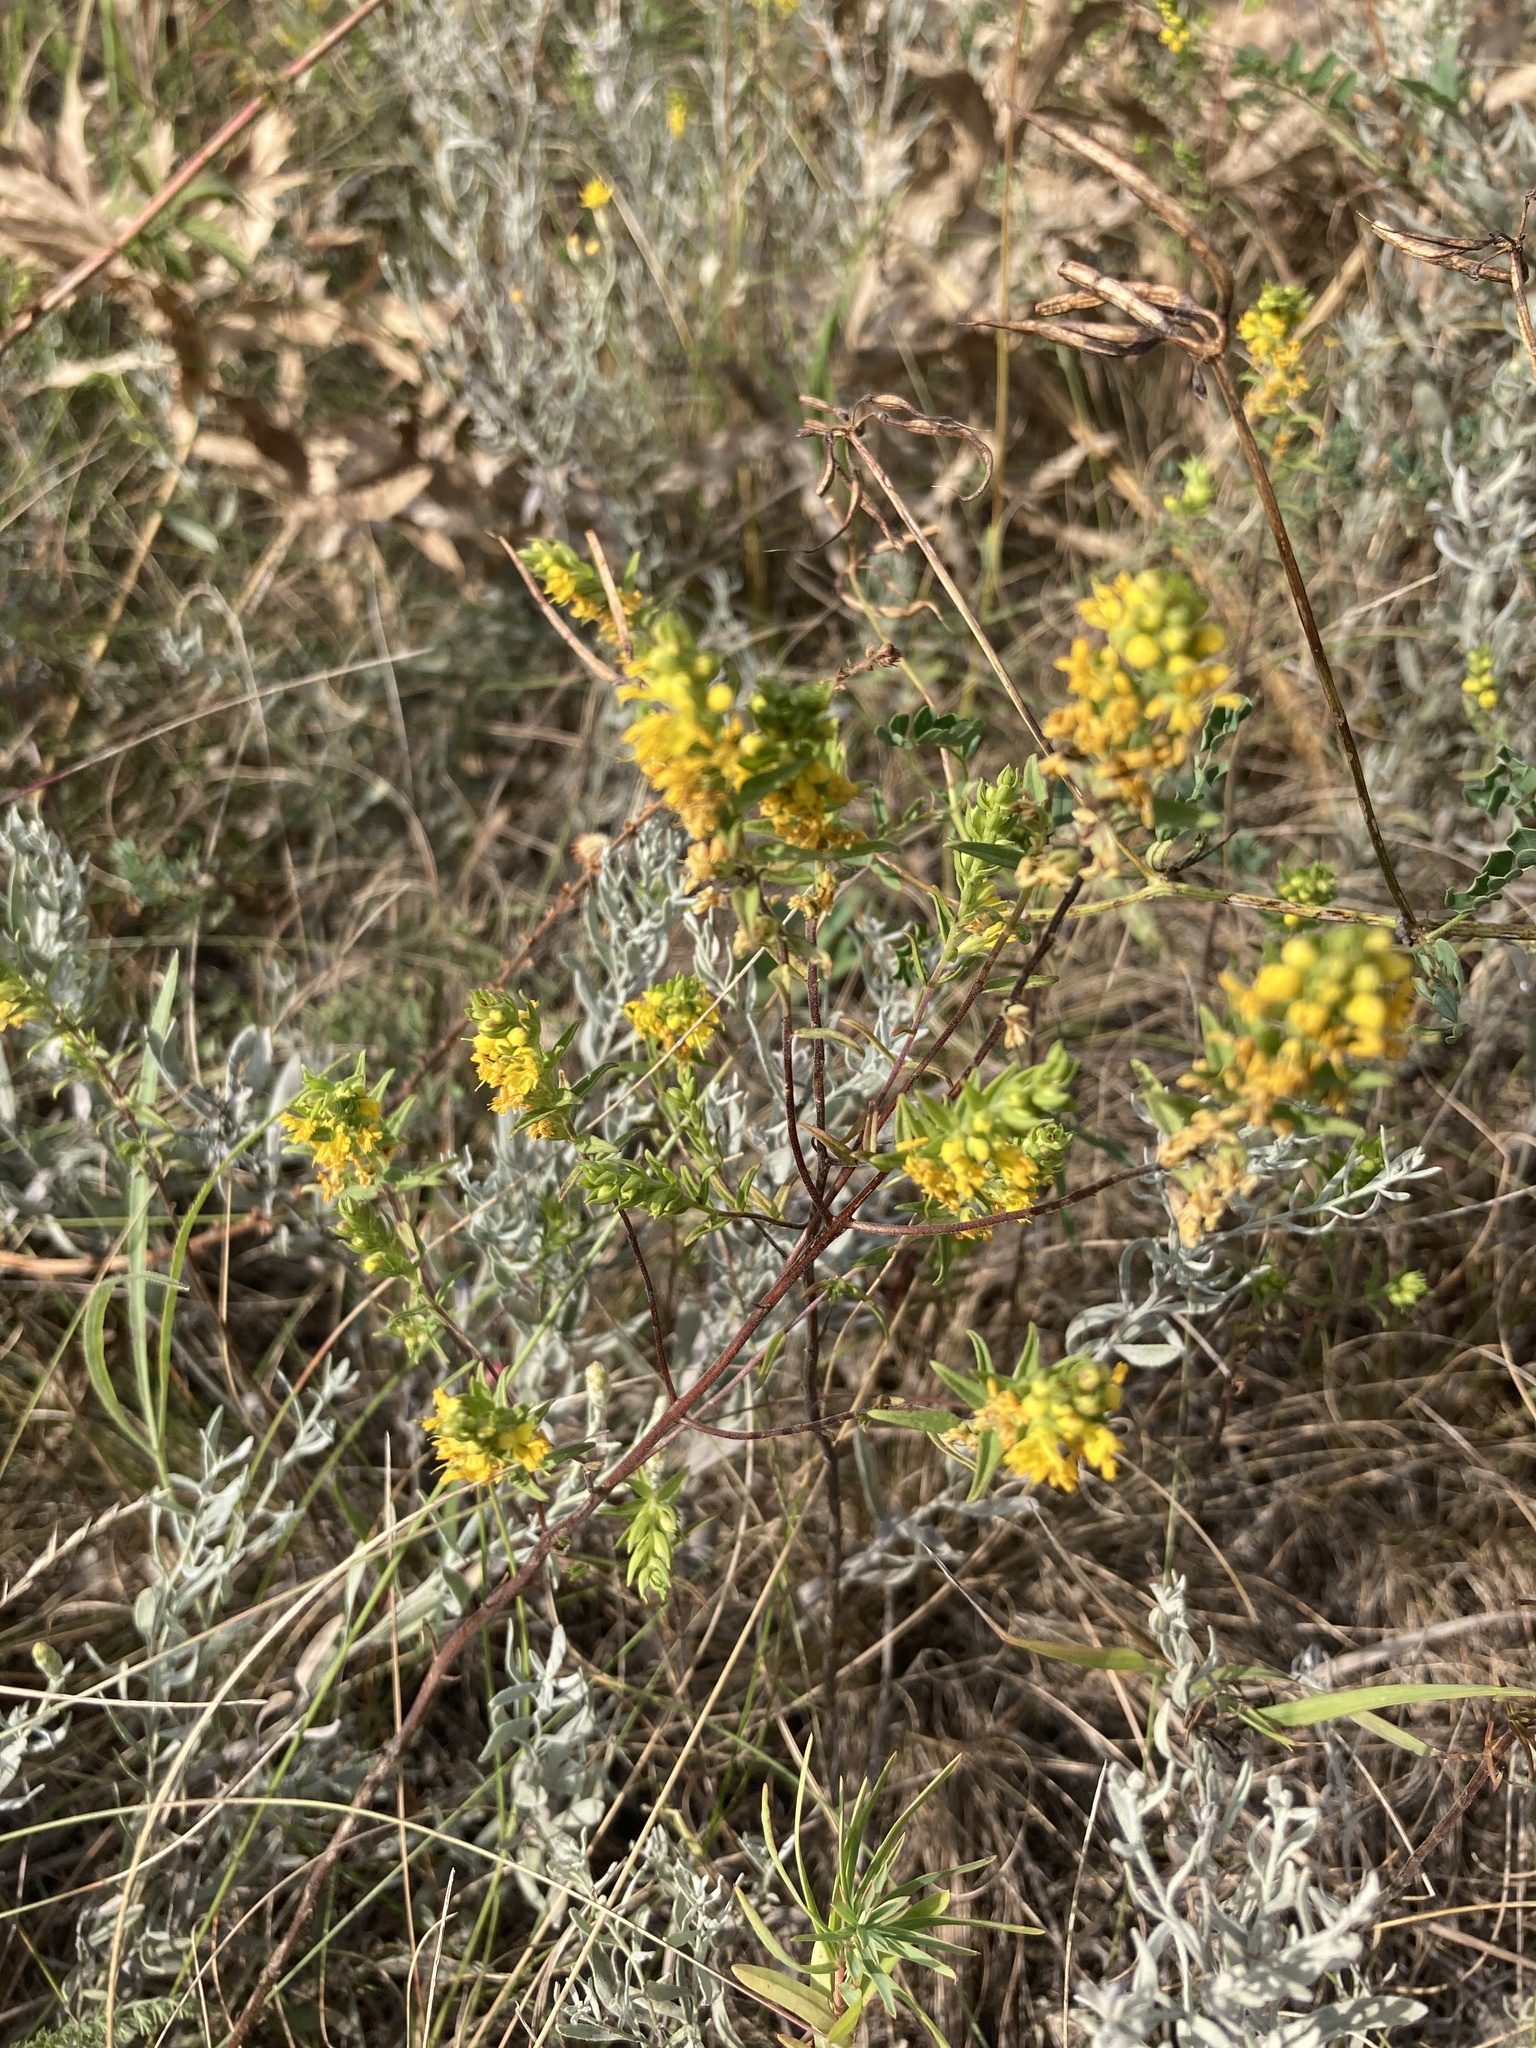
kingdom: Plantae
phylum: Tracheophyta
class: Magnoliopsida
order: Lamiales
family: Orobanchaceae
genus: Odontites
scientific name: Odontites luteus
